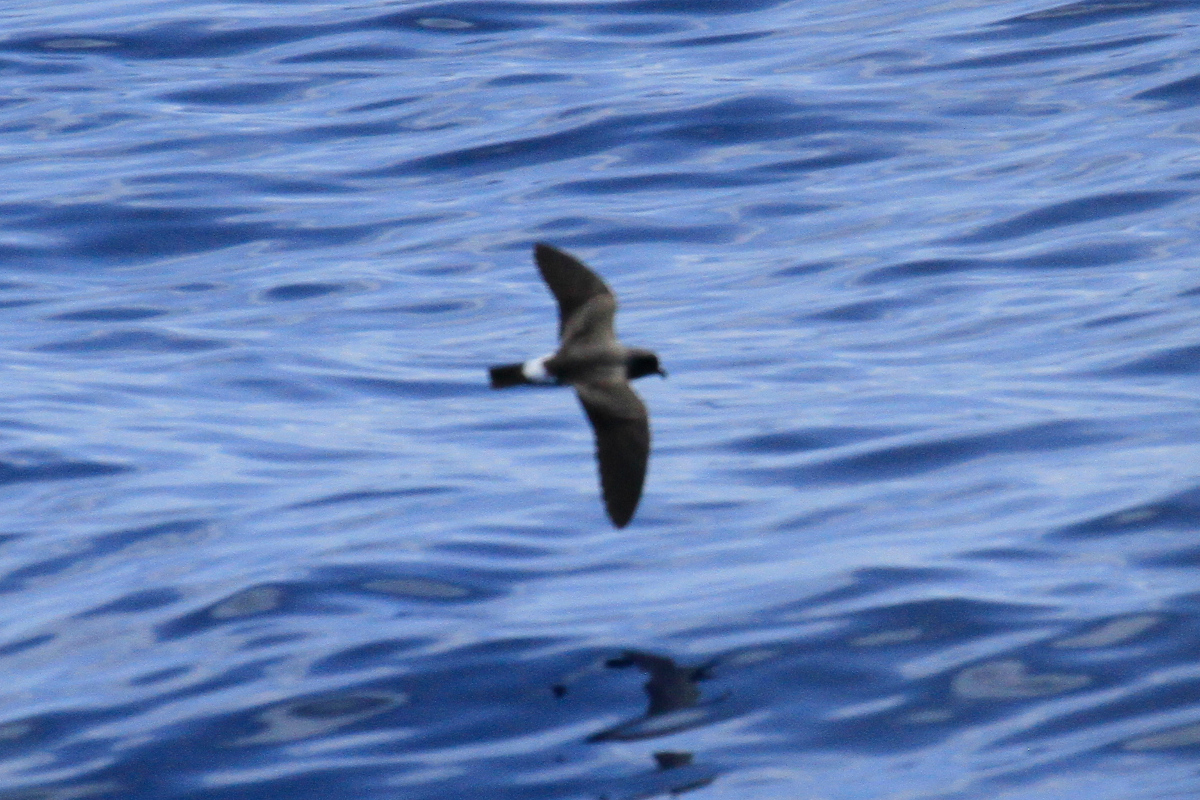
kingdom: Animalia
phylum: Chordata
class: Aves
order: Procellariiformes
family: Hydrobatidae
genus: Oceanodroma
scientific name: Oceanodroma castro
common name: Band-rumped storm-petrel
